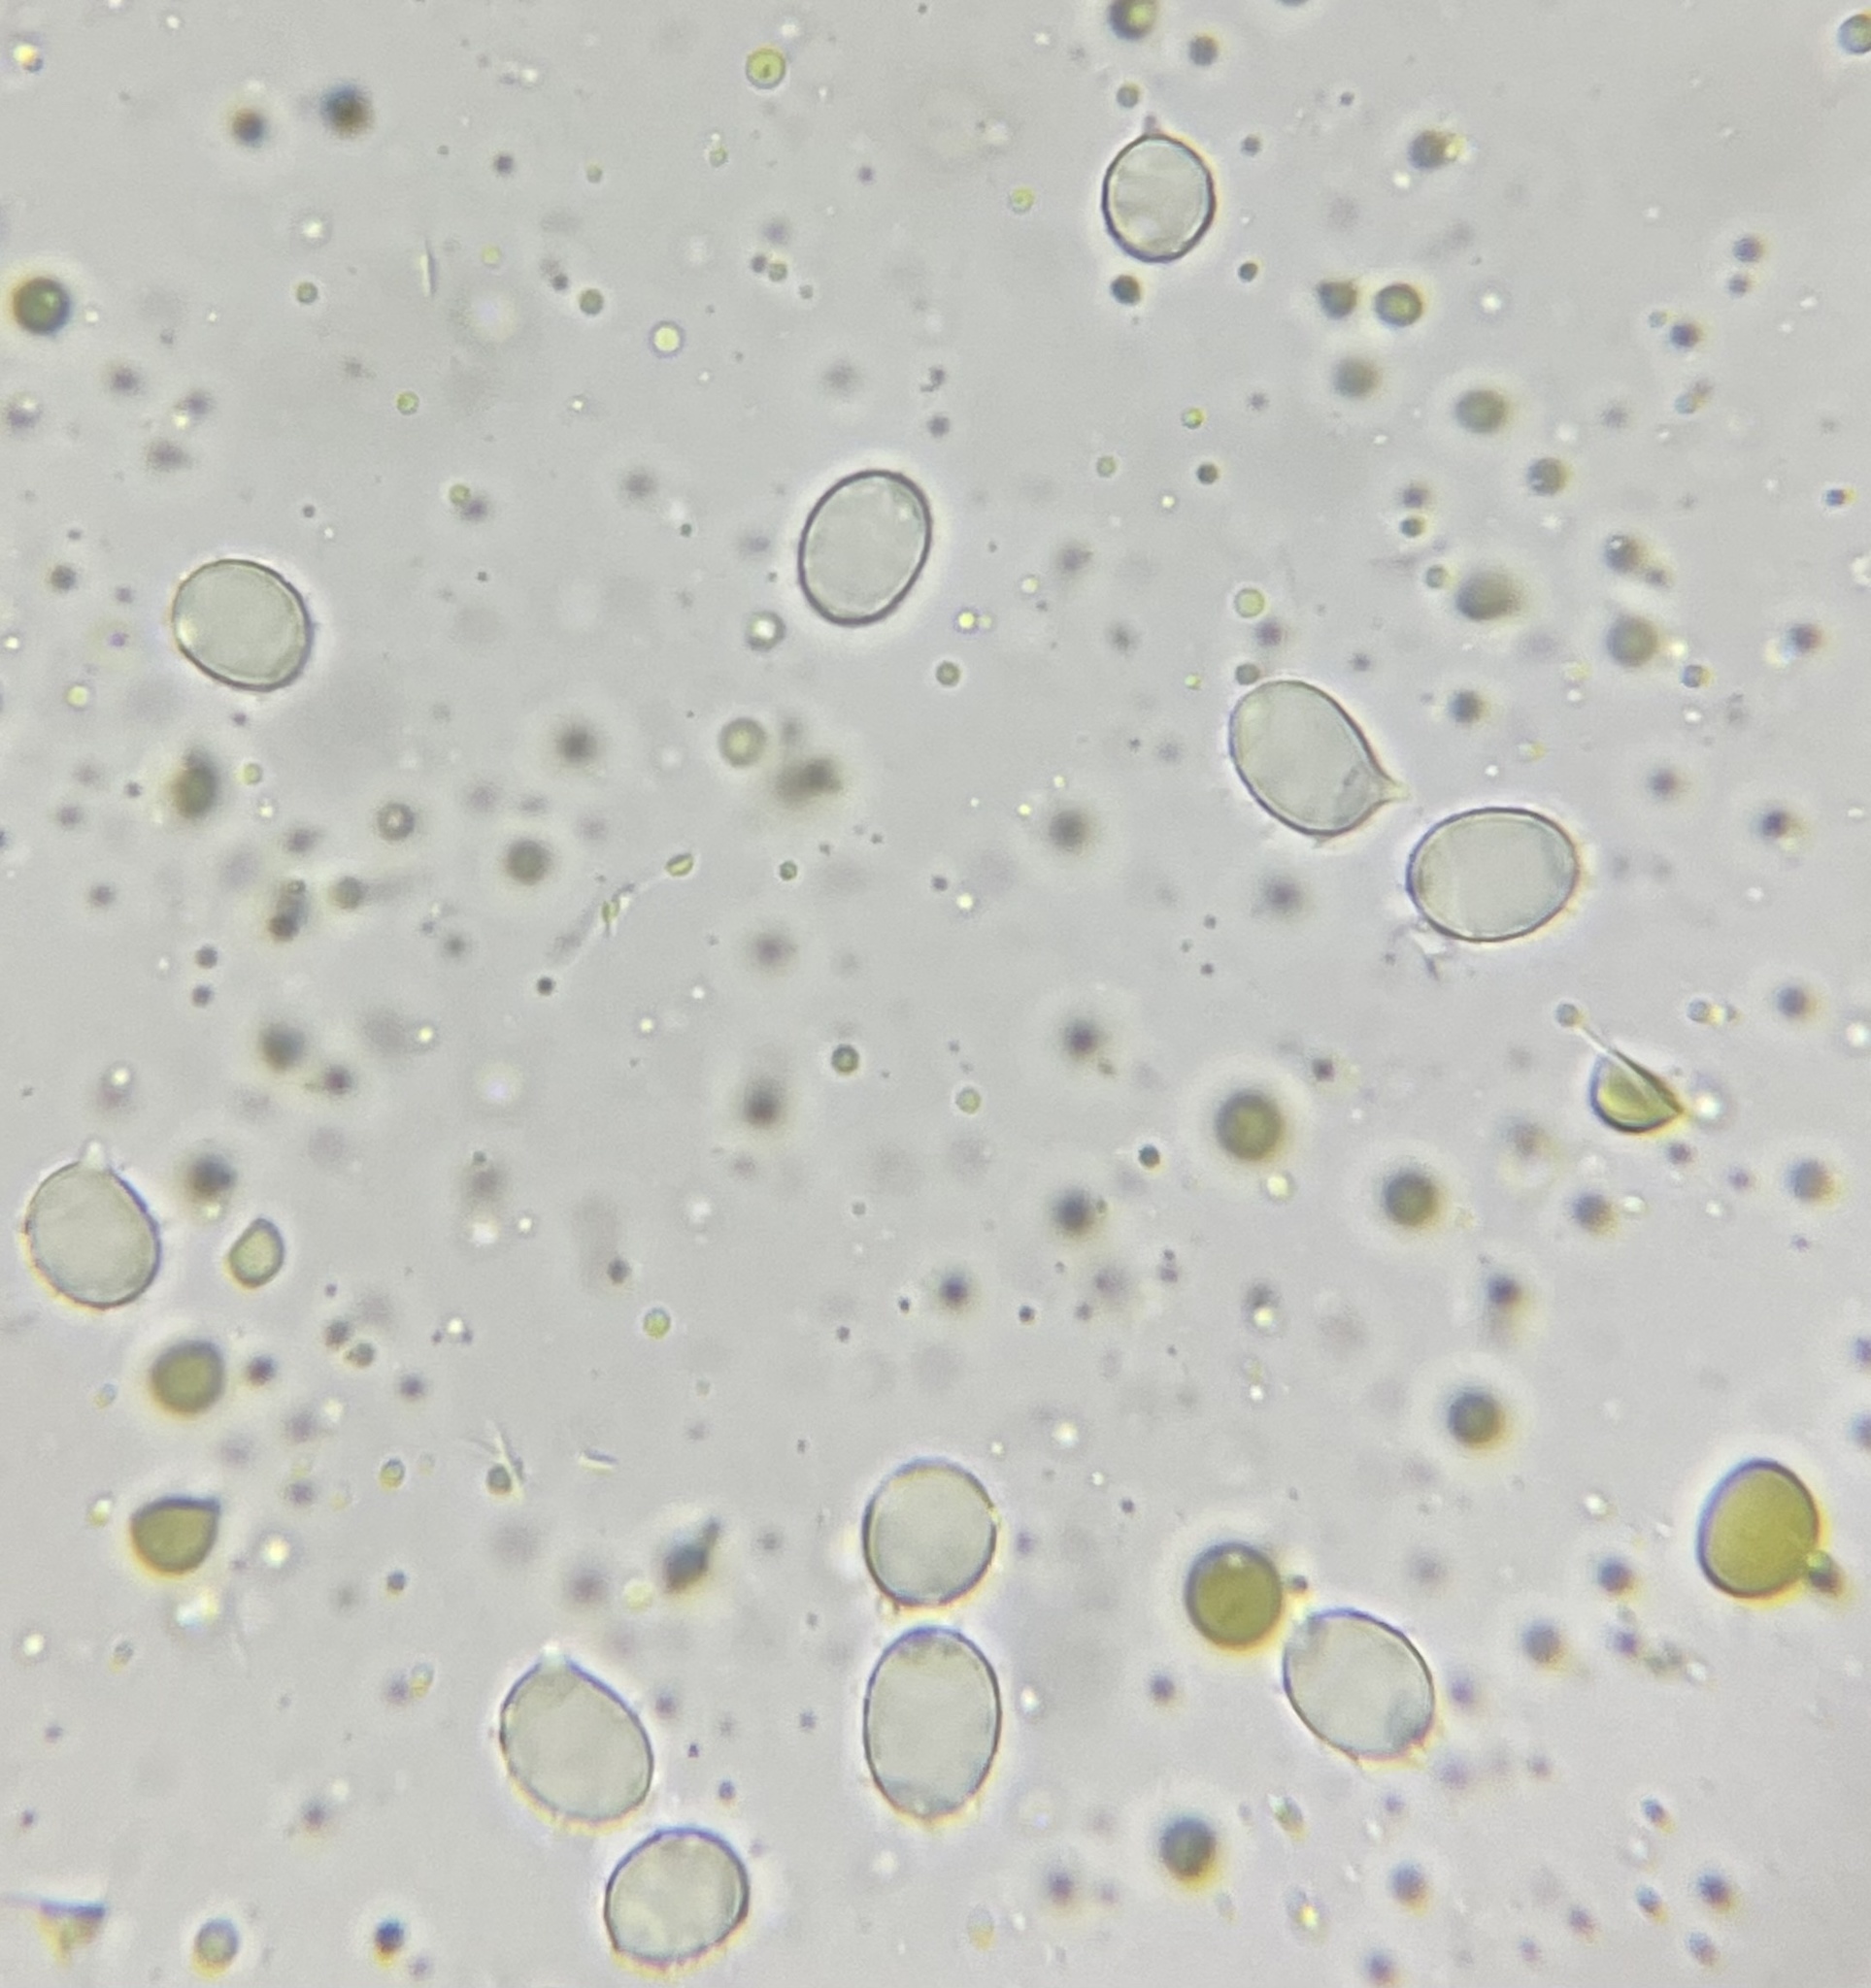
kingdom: Fungi
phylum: Basidiomycota
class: Agaricomycetes
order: Russulales
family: Russulaceae
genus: Lactarius
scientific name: Lactarius chelidonium
